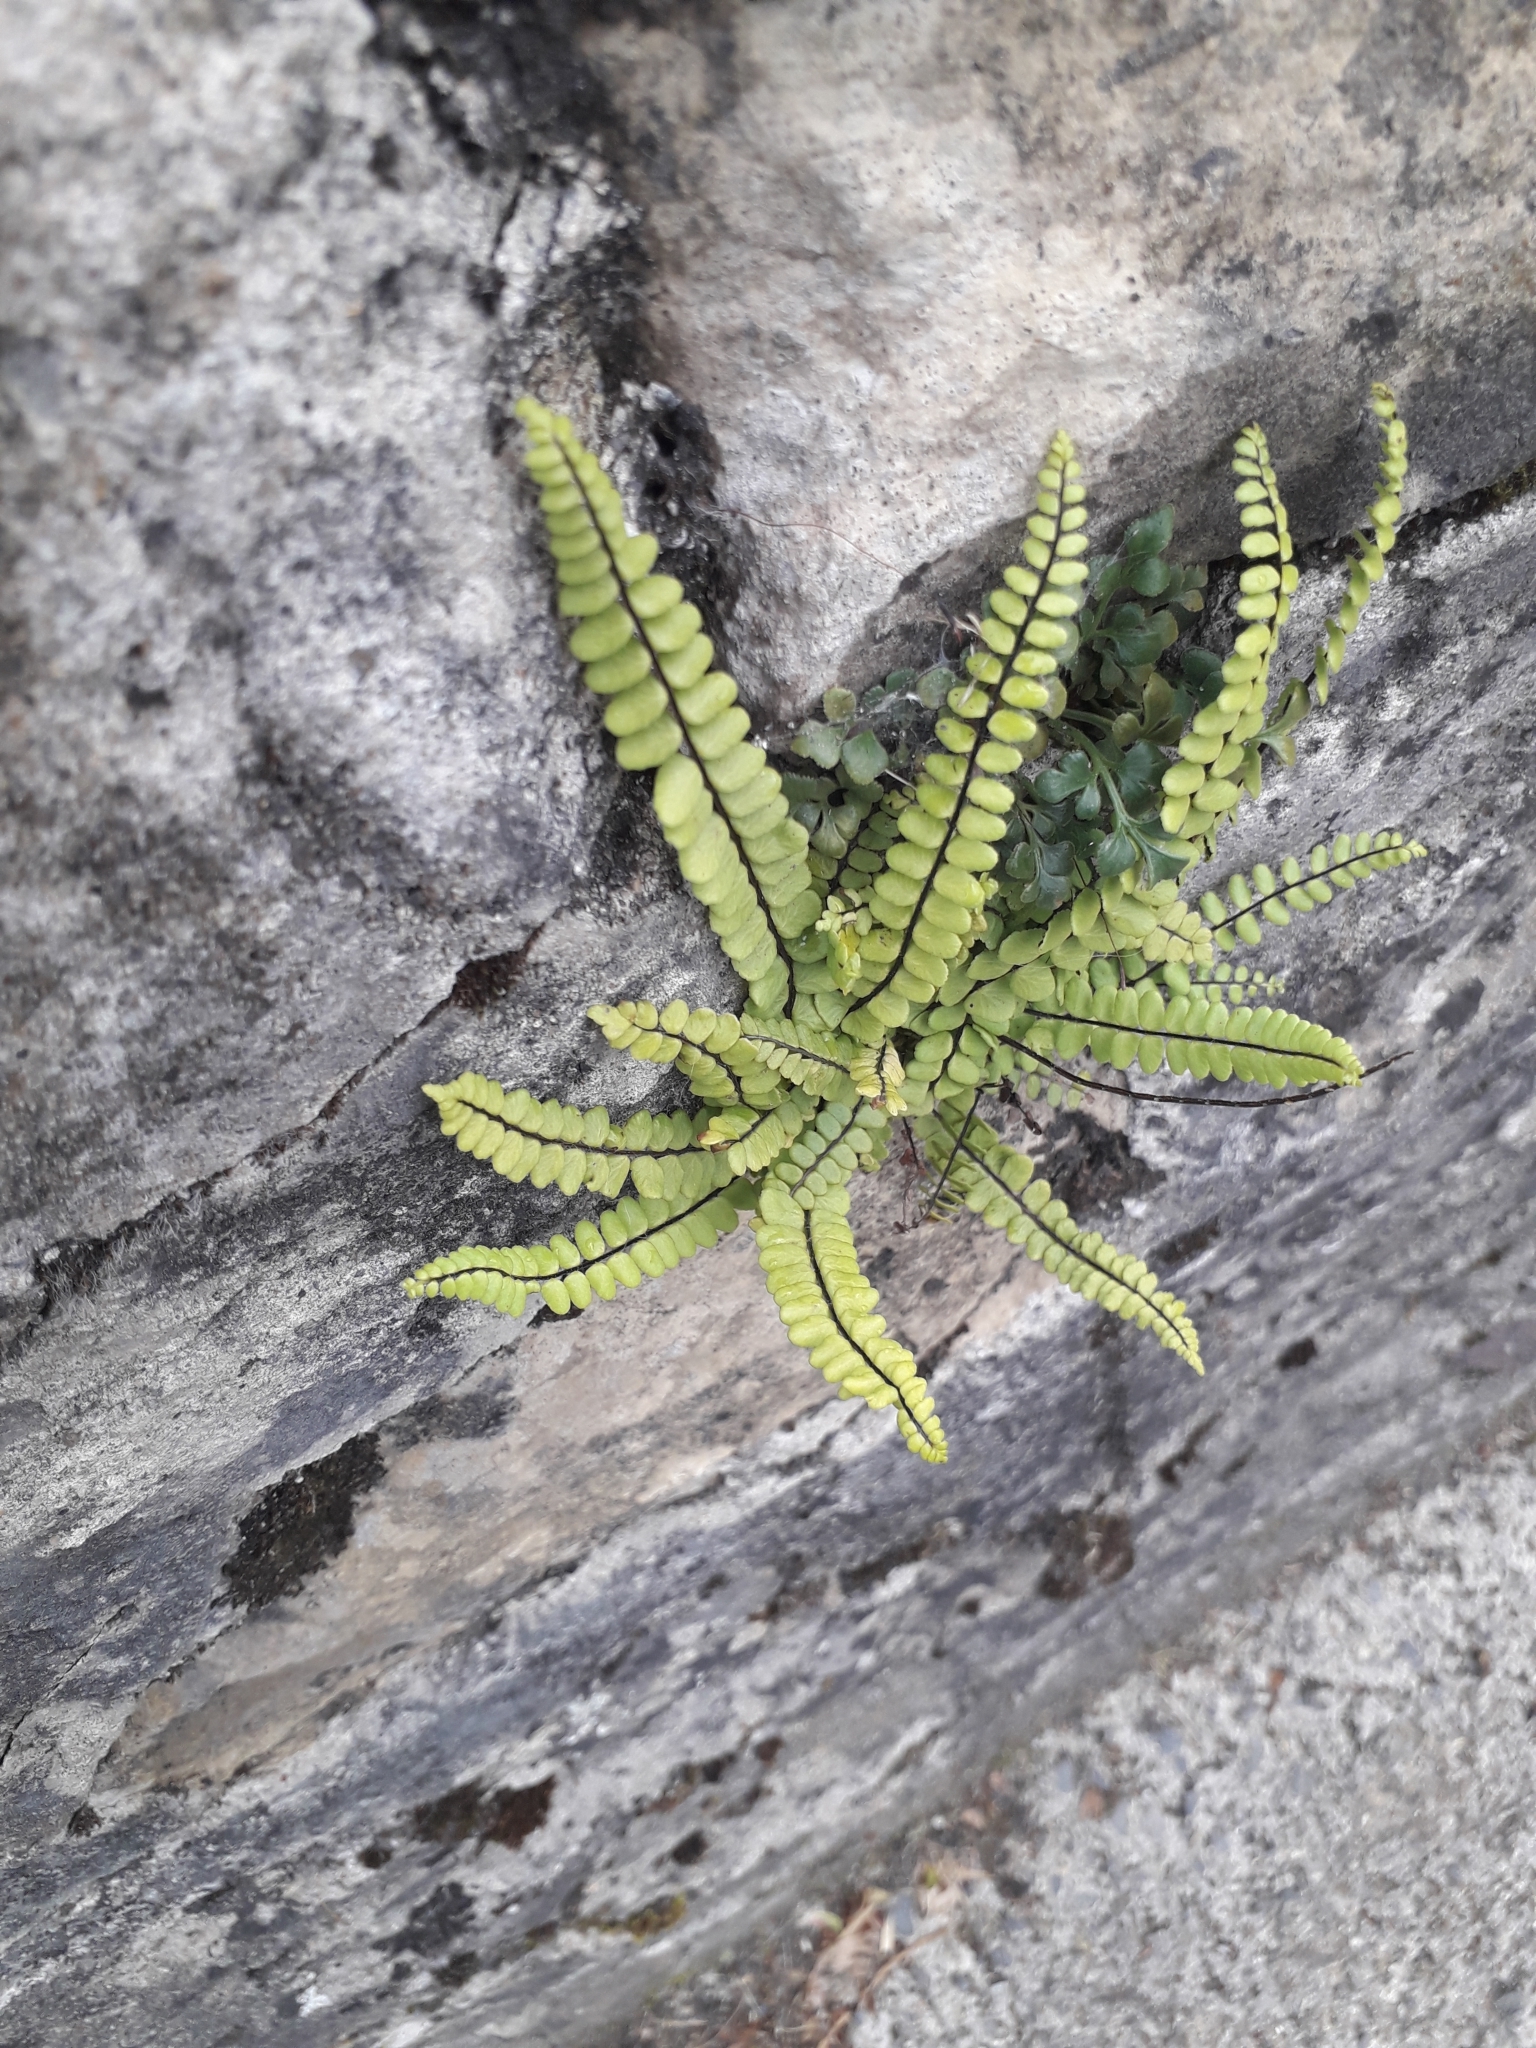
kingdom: Plantae
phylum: Tracheophyta
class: Polypodiopsida
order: Polypodiales
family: Aspleniaceae
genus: Asplenium
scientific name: Asplenium trichomanes
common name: Maidenhair spleenwort
